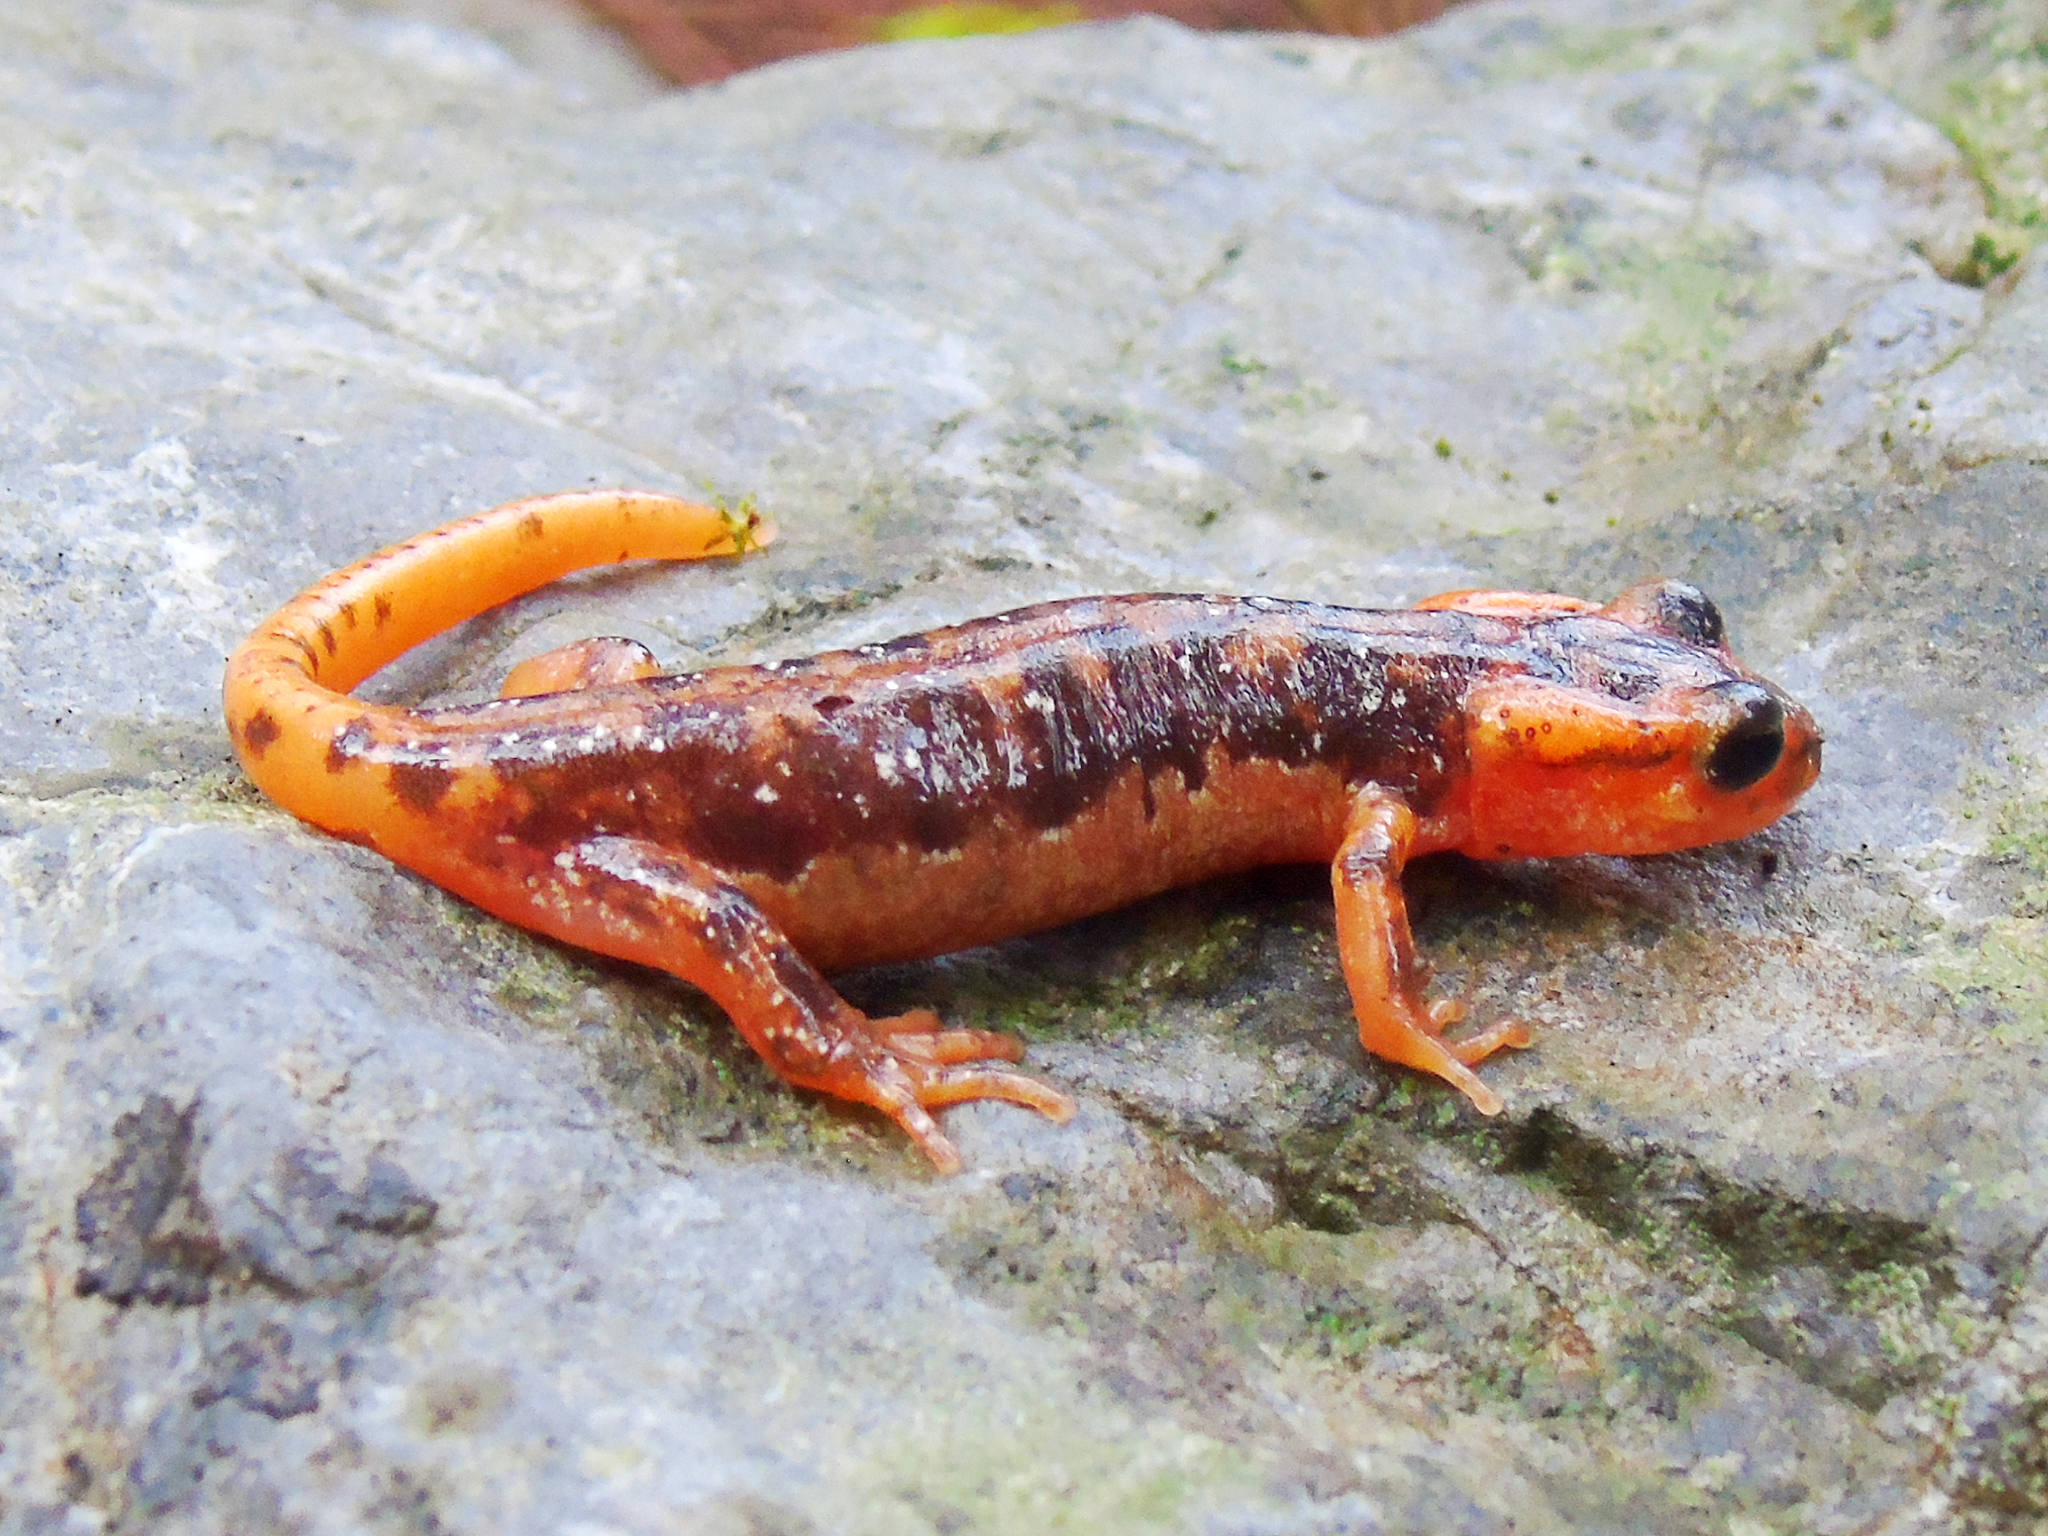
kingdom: Animalia
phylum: Chordata
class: Amphibia
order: Caudata
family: Salamandridae
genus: Lyciasalamandra
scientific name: Lyciasalamandra fazilae
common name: Fazila's salamander
